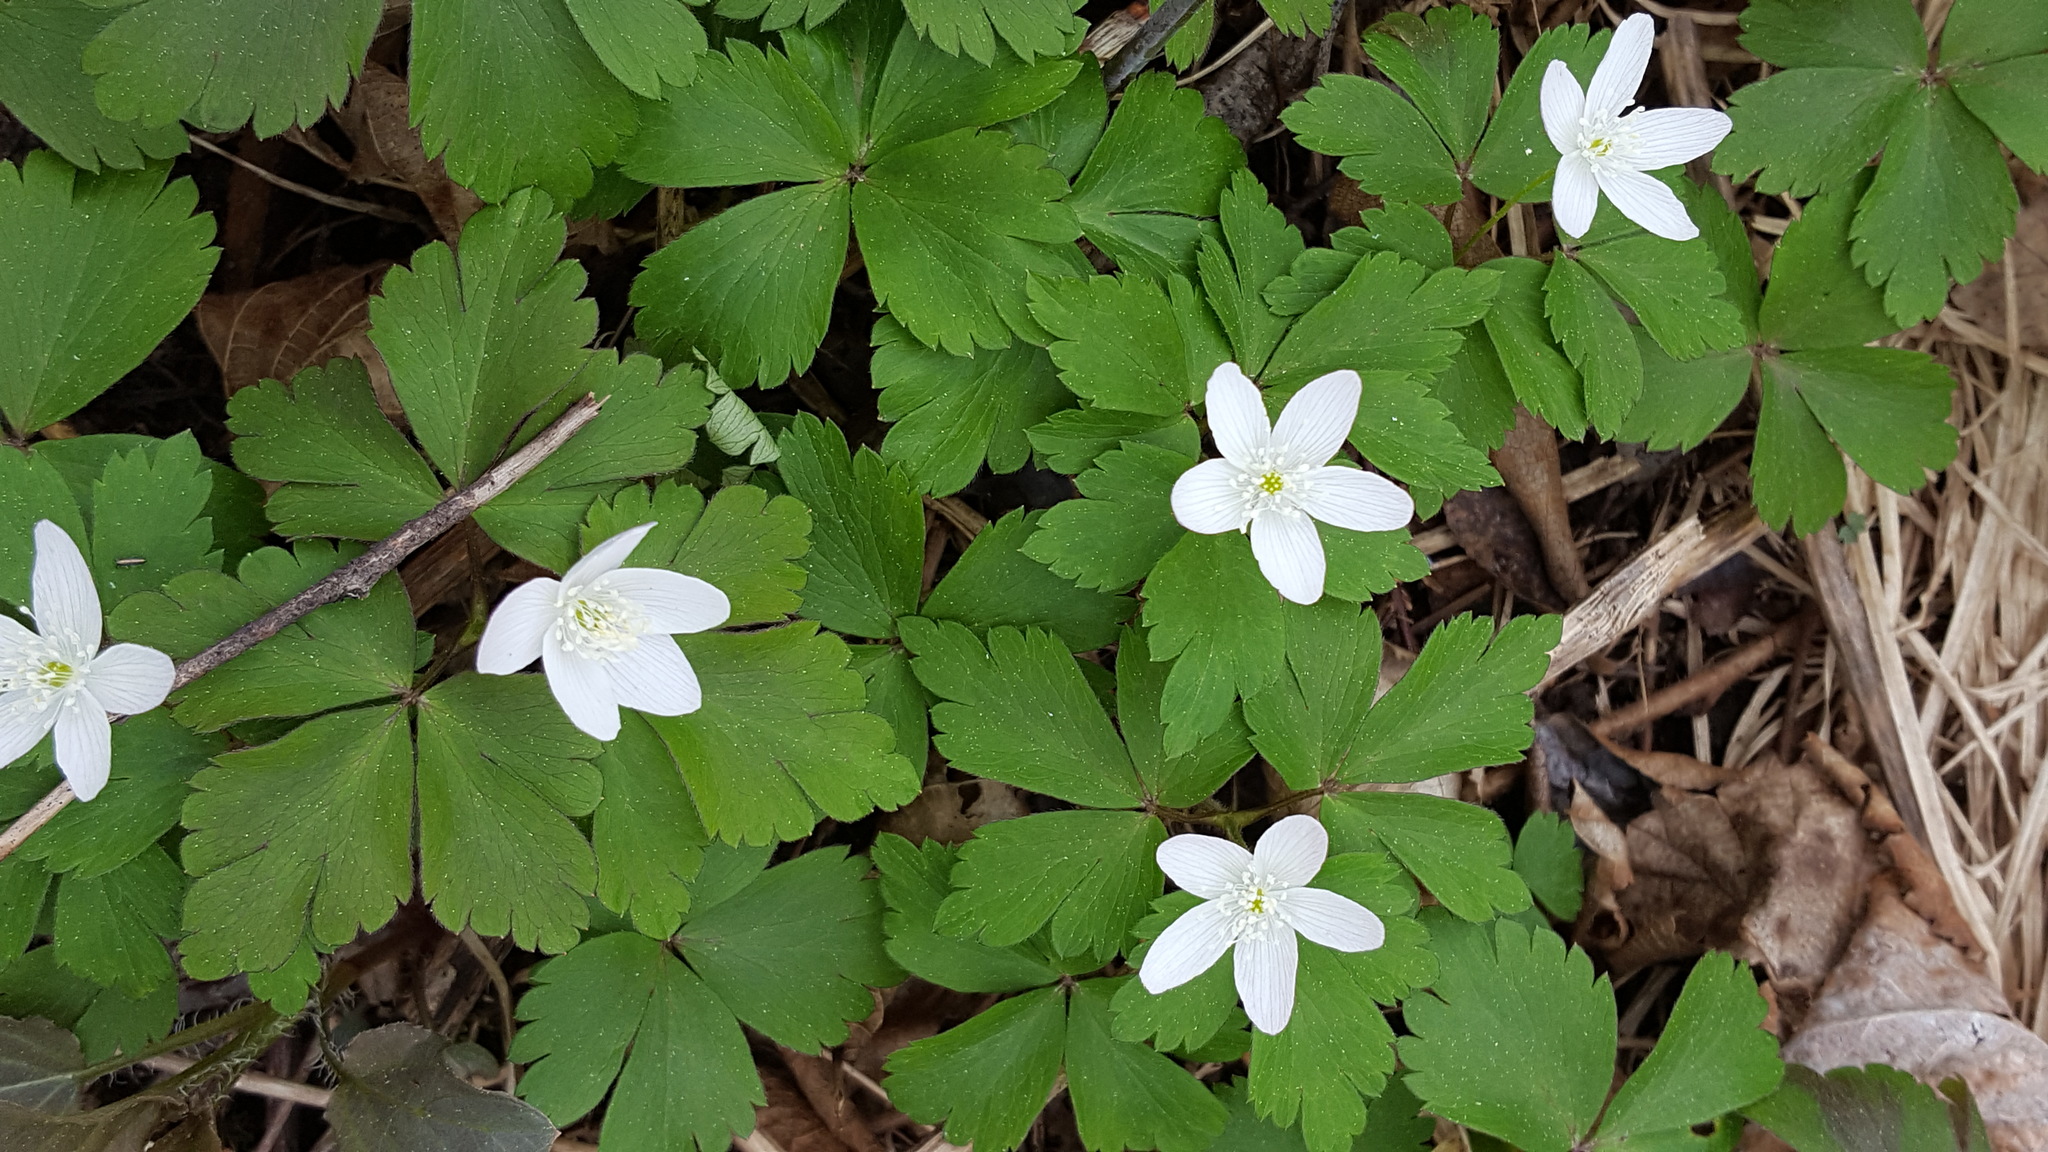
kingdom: Plantae
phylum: Tracheophyta
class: Magnoliopsida
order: Ranunculales
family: Ranunculaceae
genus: Anemone
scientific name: Anemone quinquefolia
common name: Wood anemone
